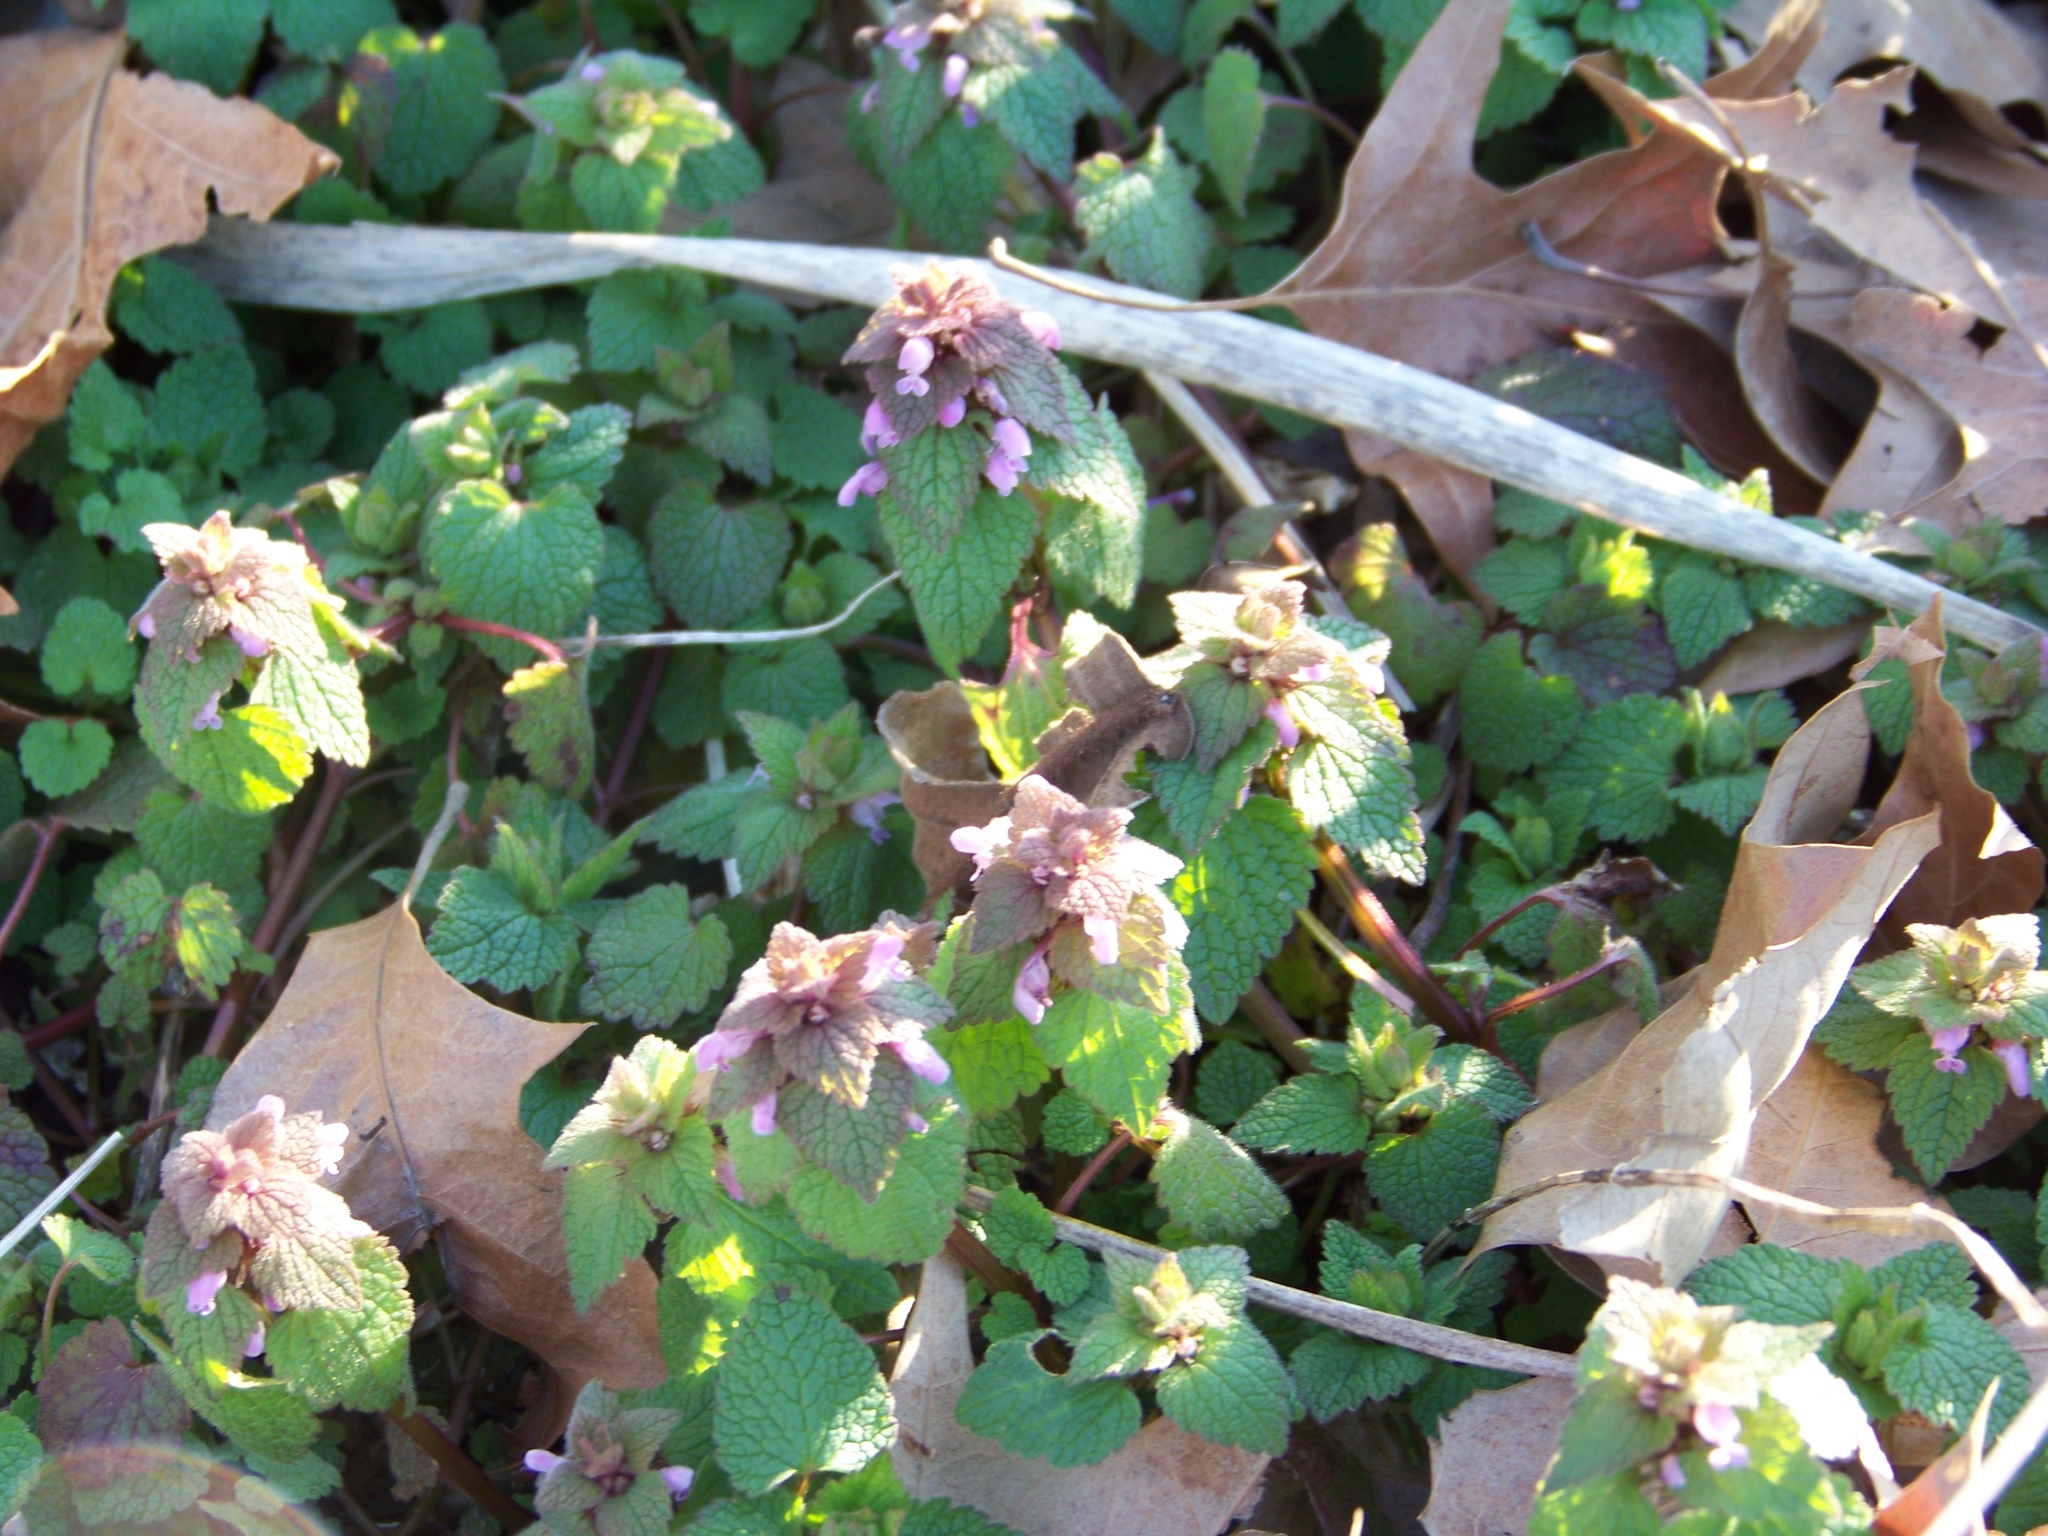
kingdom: Plantae
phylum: Tracheophyta
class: Magnoliopsida
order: Lamiales
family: Lamiaceae
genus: Lamium
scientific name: Lamium purpureum
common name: Red dead-nettle
